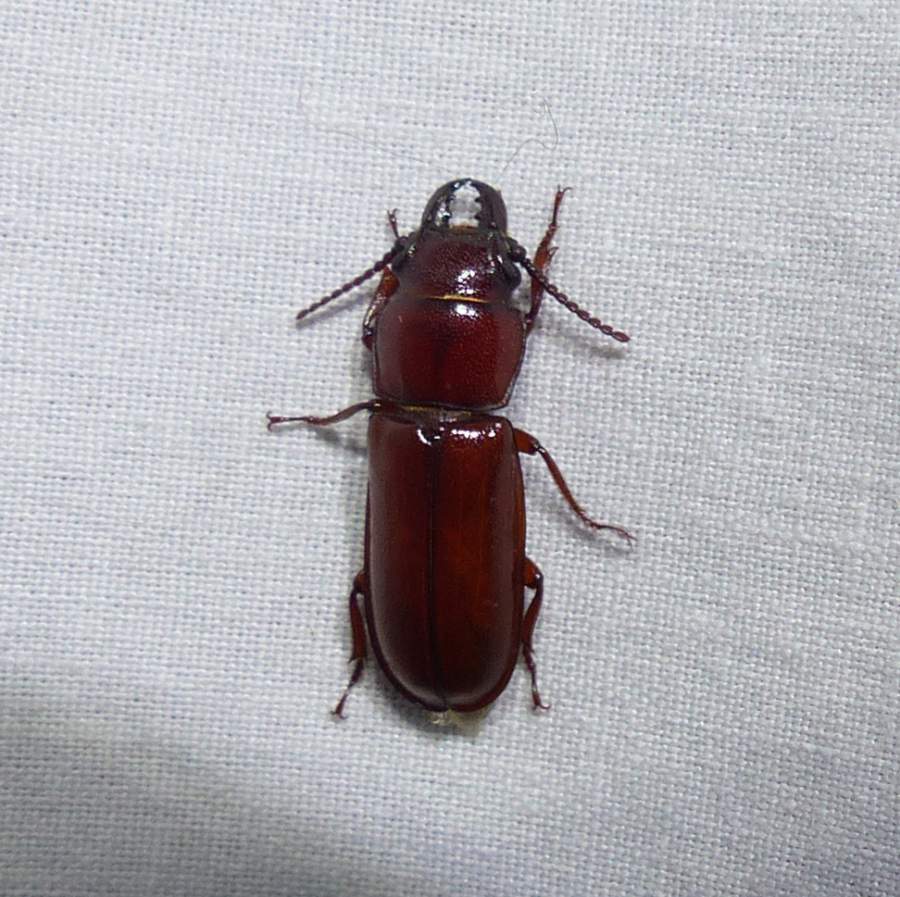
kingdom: Animalia
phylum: Arthropoda
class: Insecta
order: Coleoptera
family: Cerambycidae
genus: Neandra
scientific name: Neandra brunnea
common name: Pole borer
